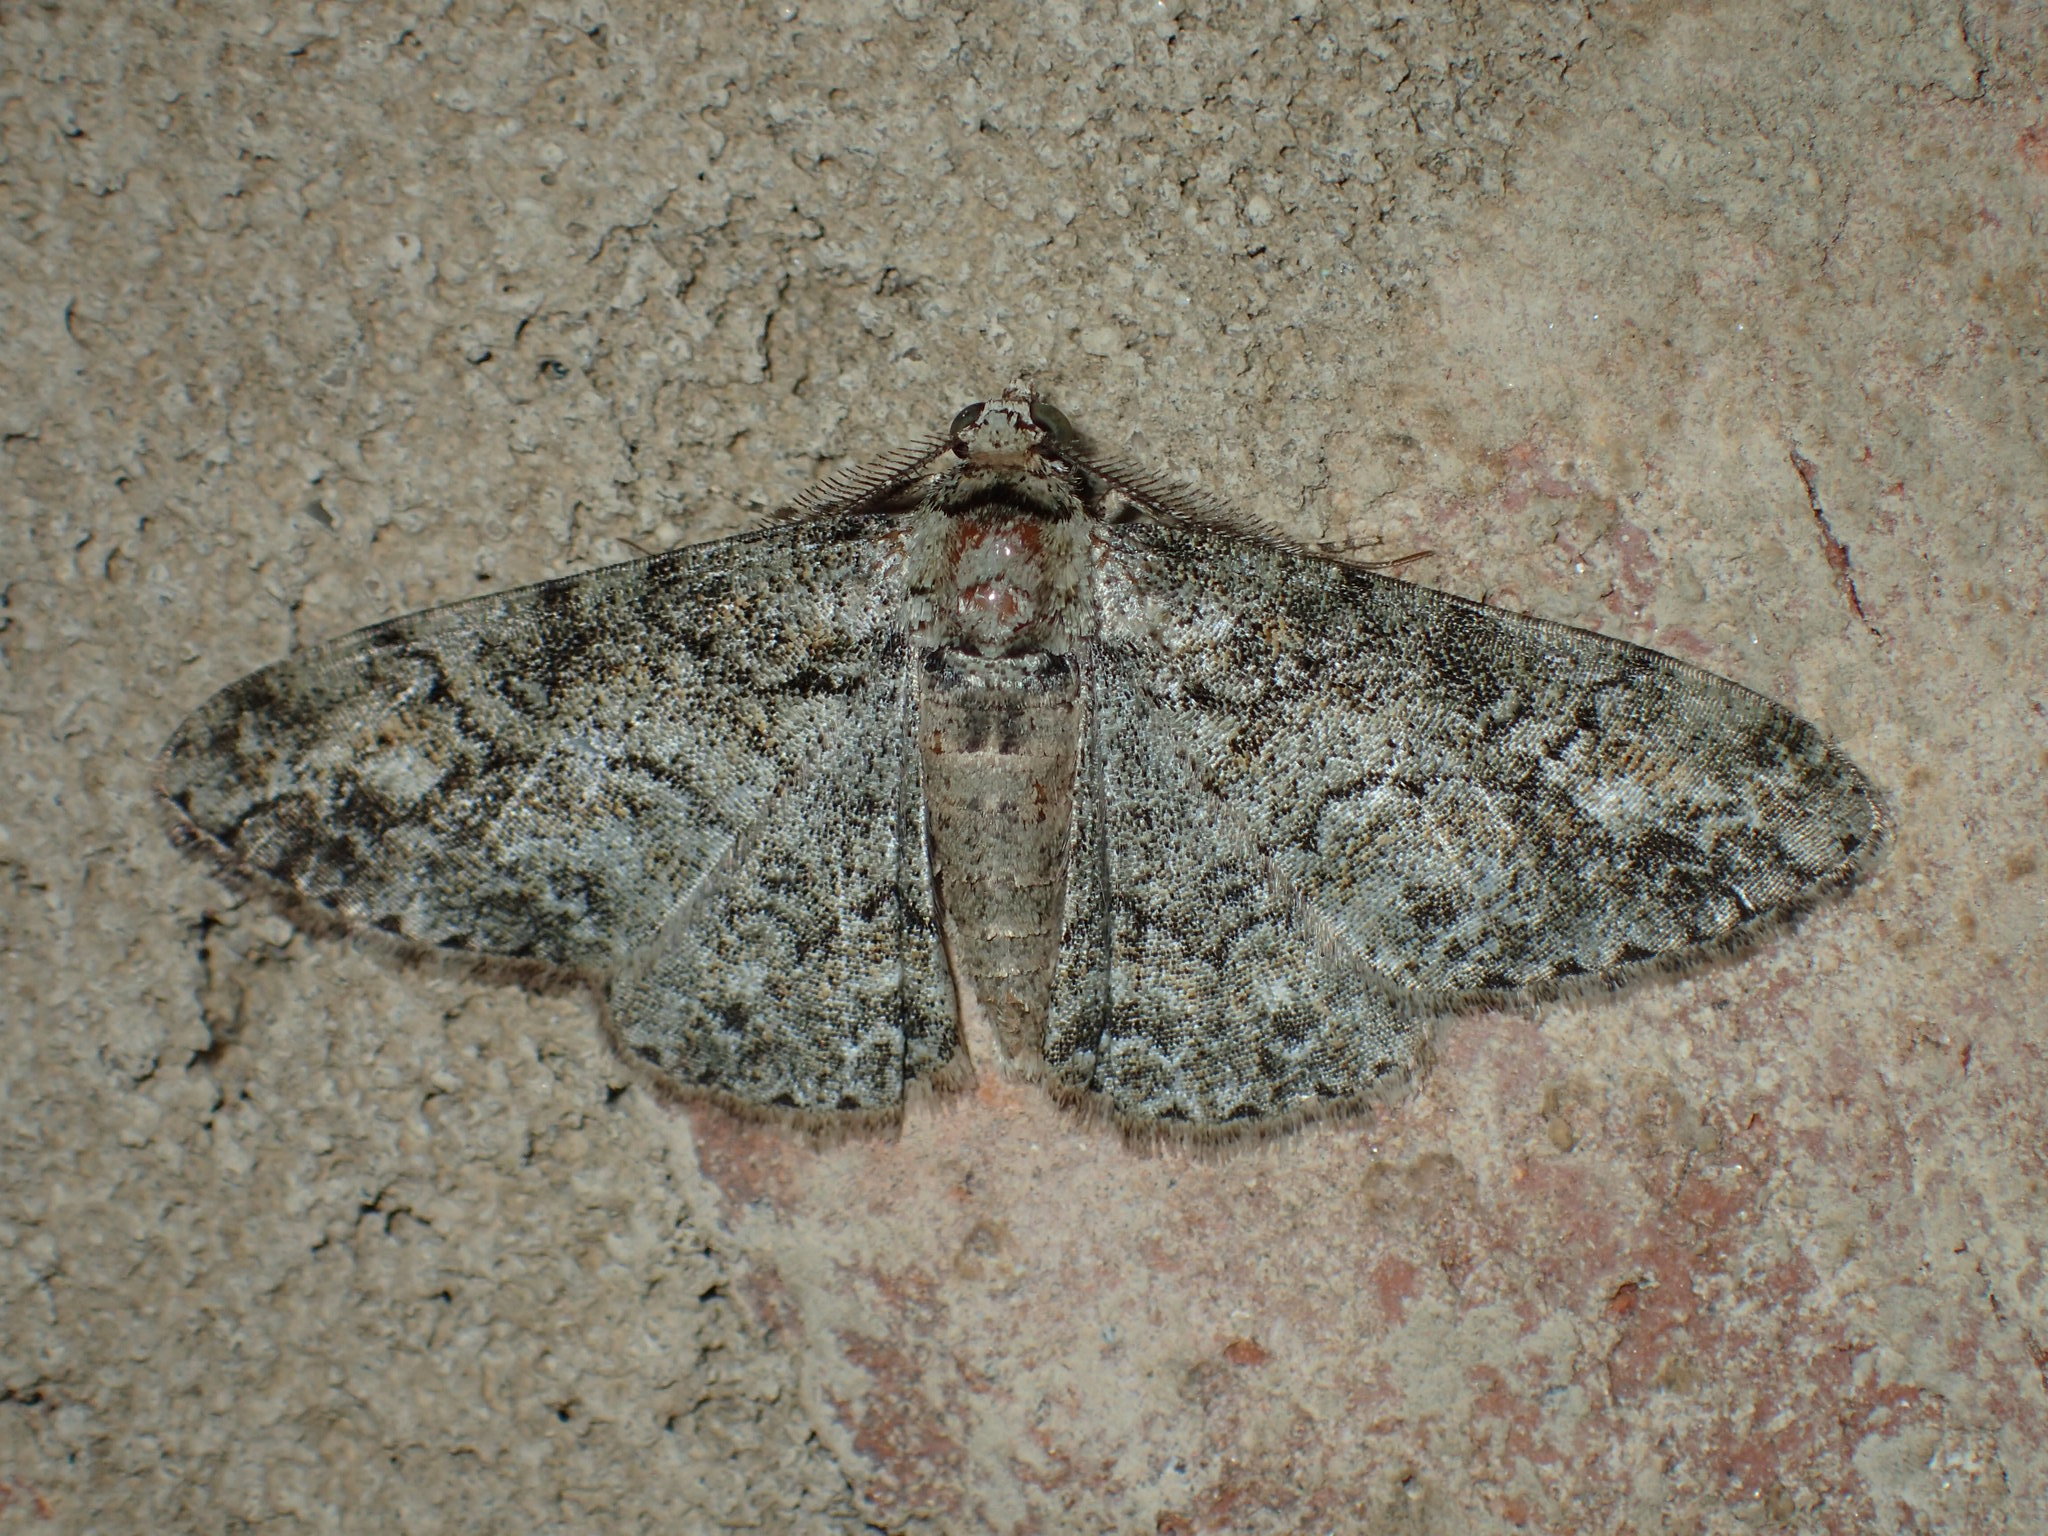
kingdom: Animalia
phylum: Arthropoda
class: Insecta
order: Lepidoptera
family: Geometridae
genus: Cleora
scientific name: Cleora sublunaria
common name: Double-lined gray
